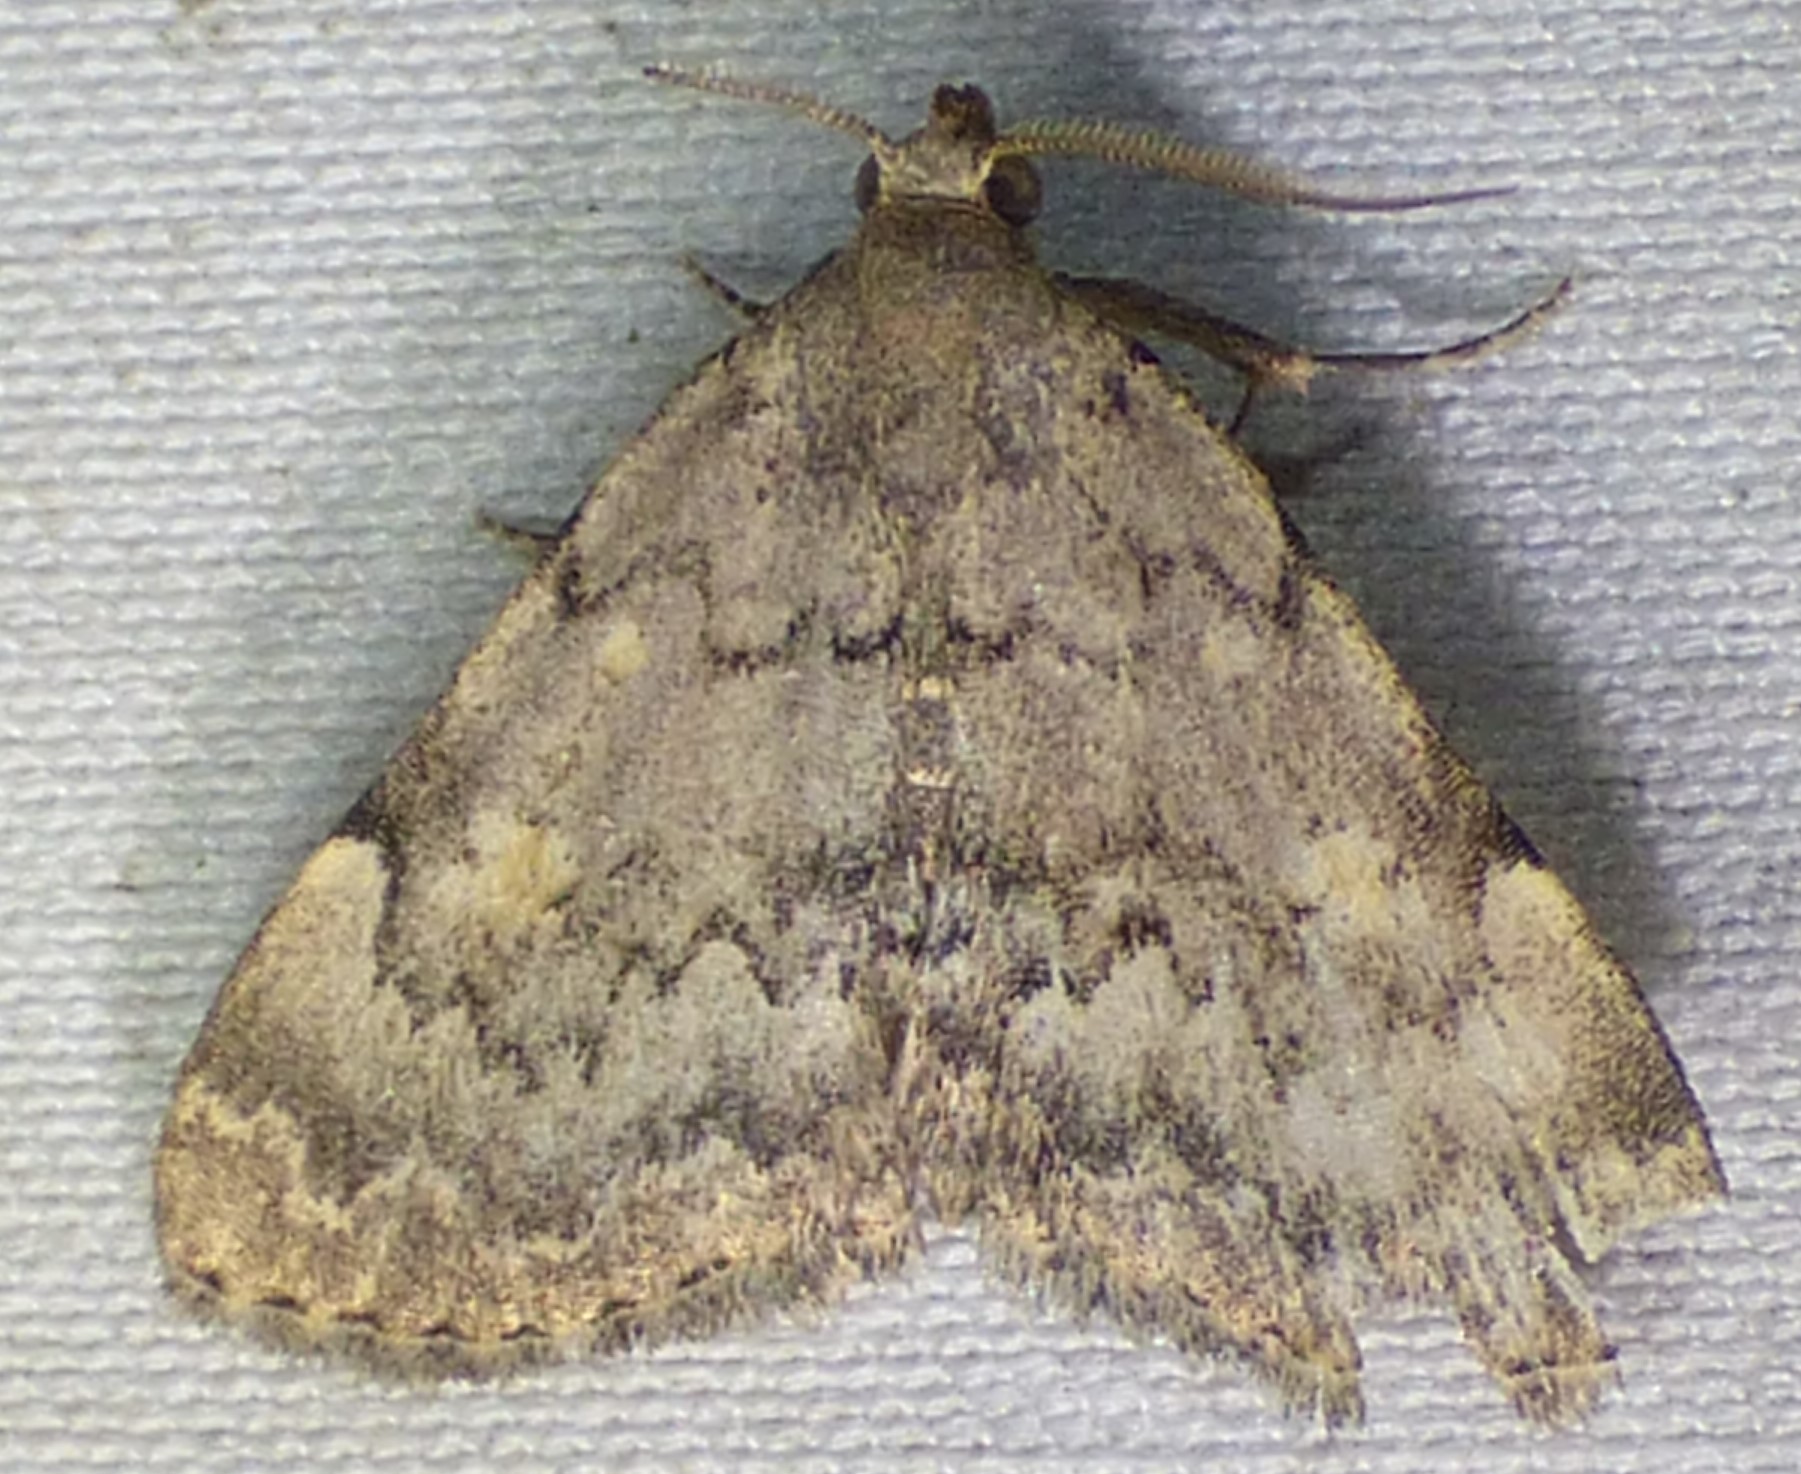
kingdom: Animalia
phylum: Arthropoda
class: Insecta
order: Lepidoptera
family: Erebidae
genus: Idia
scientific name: Idia aemula
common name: Common idia moth
